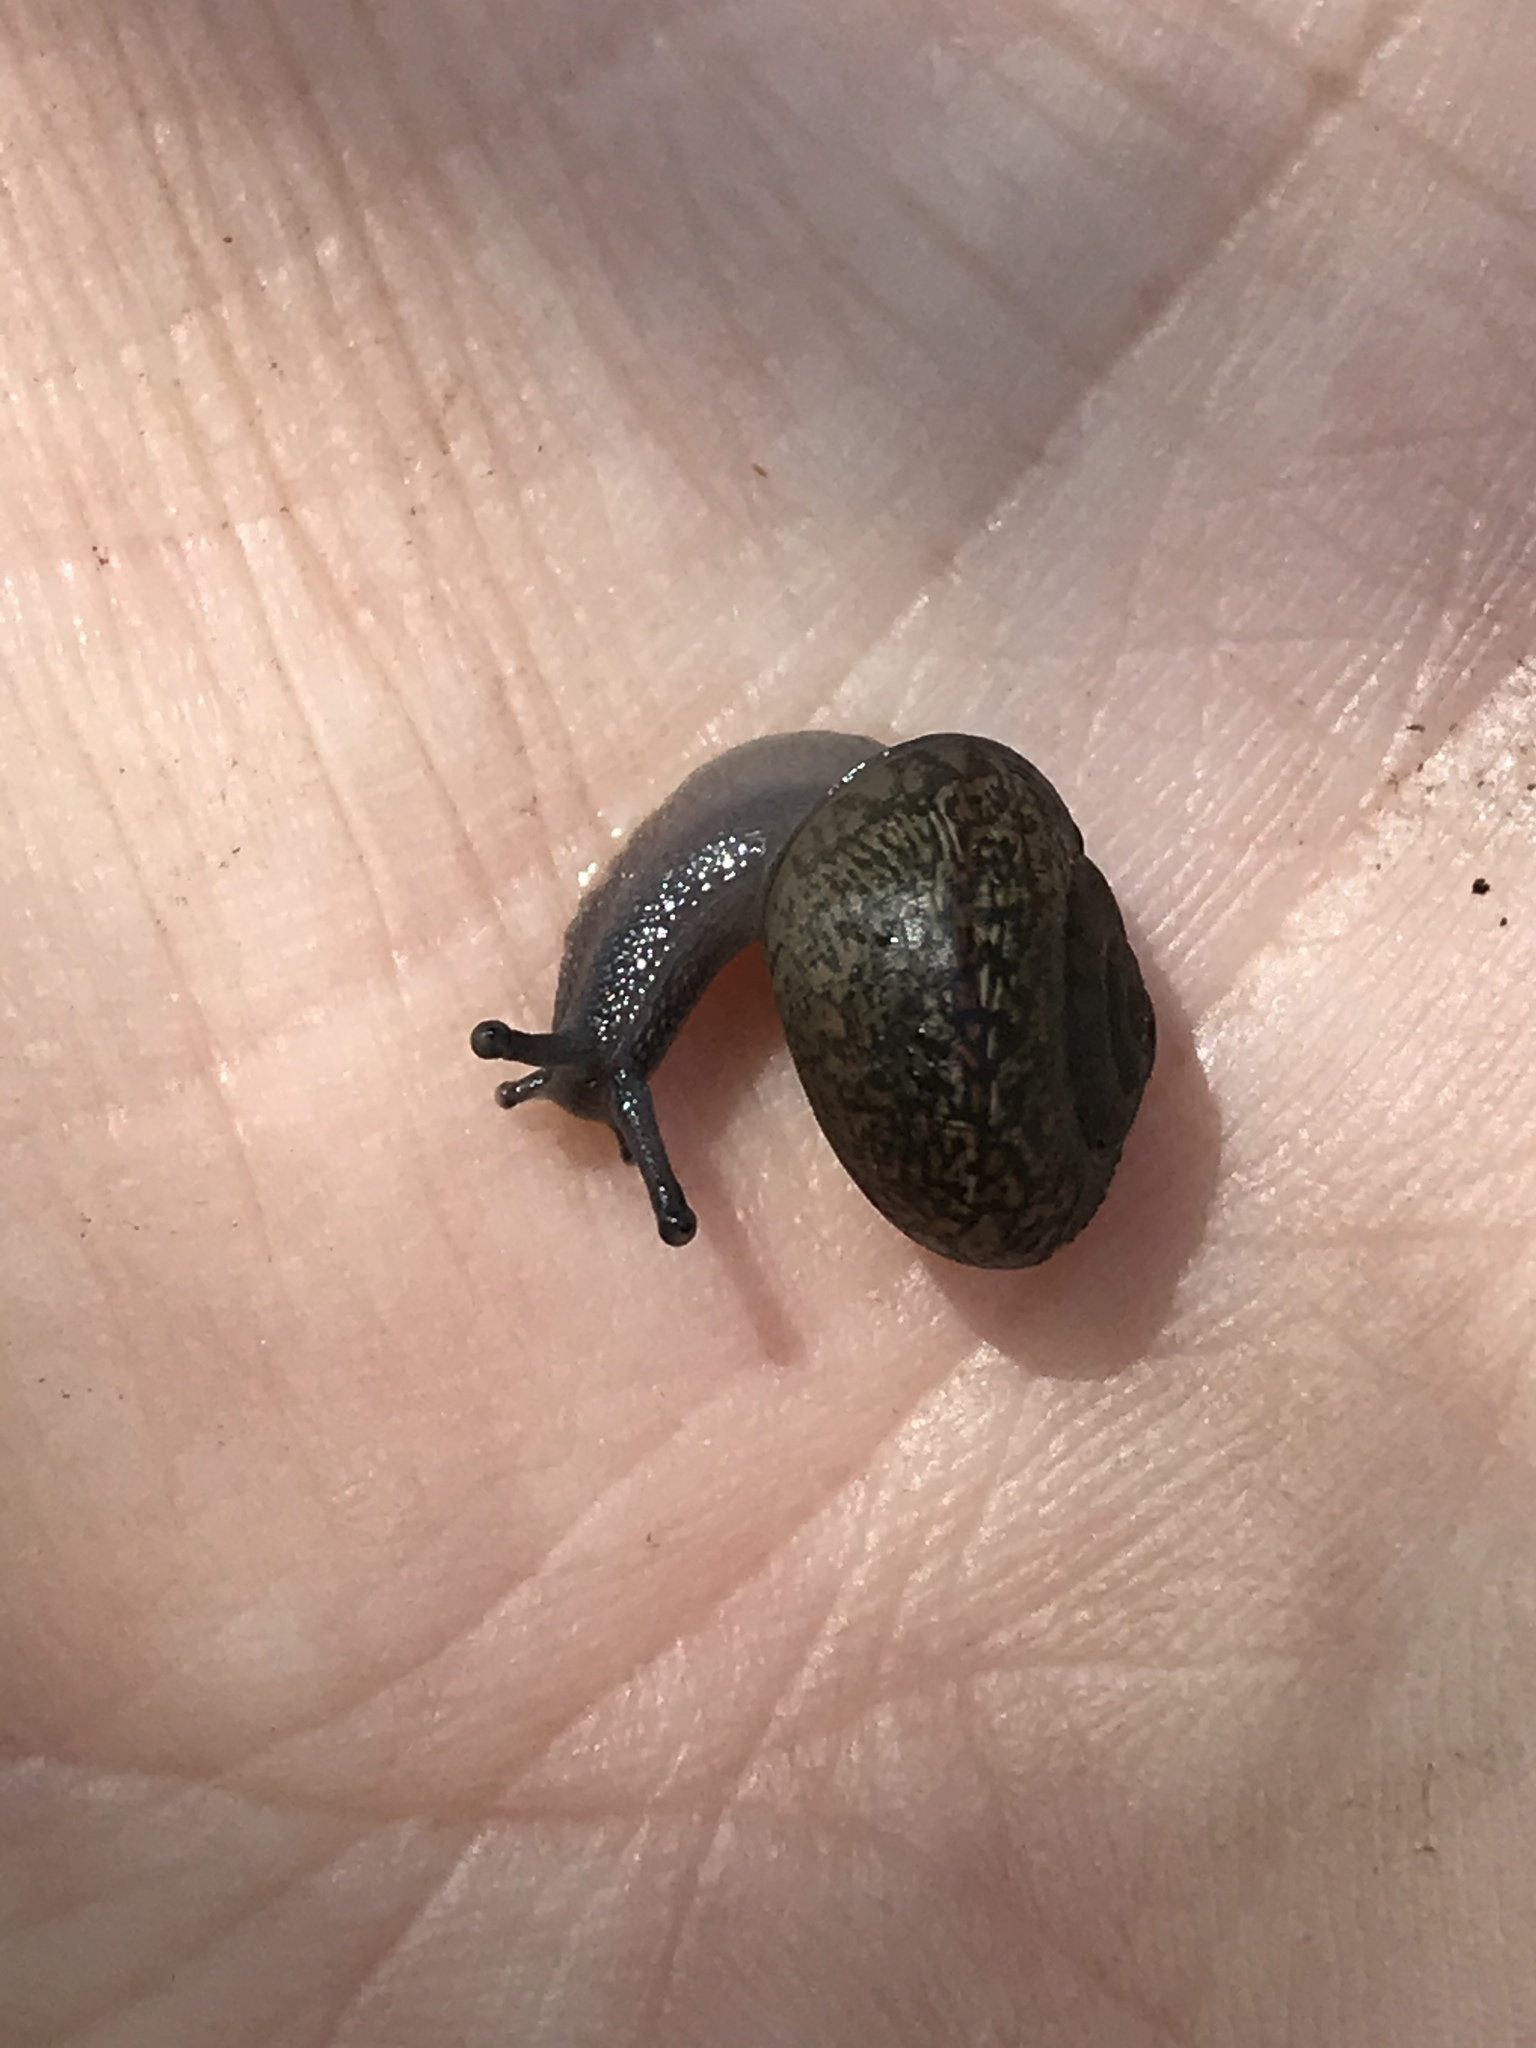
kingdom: Animalia
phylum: Mollusca
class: Gastropoda
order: Stylommatophora
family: Xanthonychidae
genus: Helminthoglypta
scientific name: Helminthoglypta
